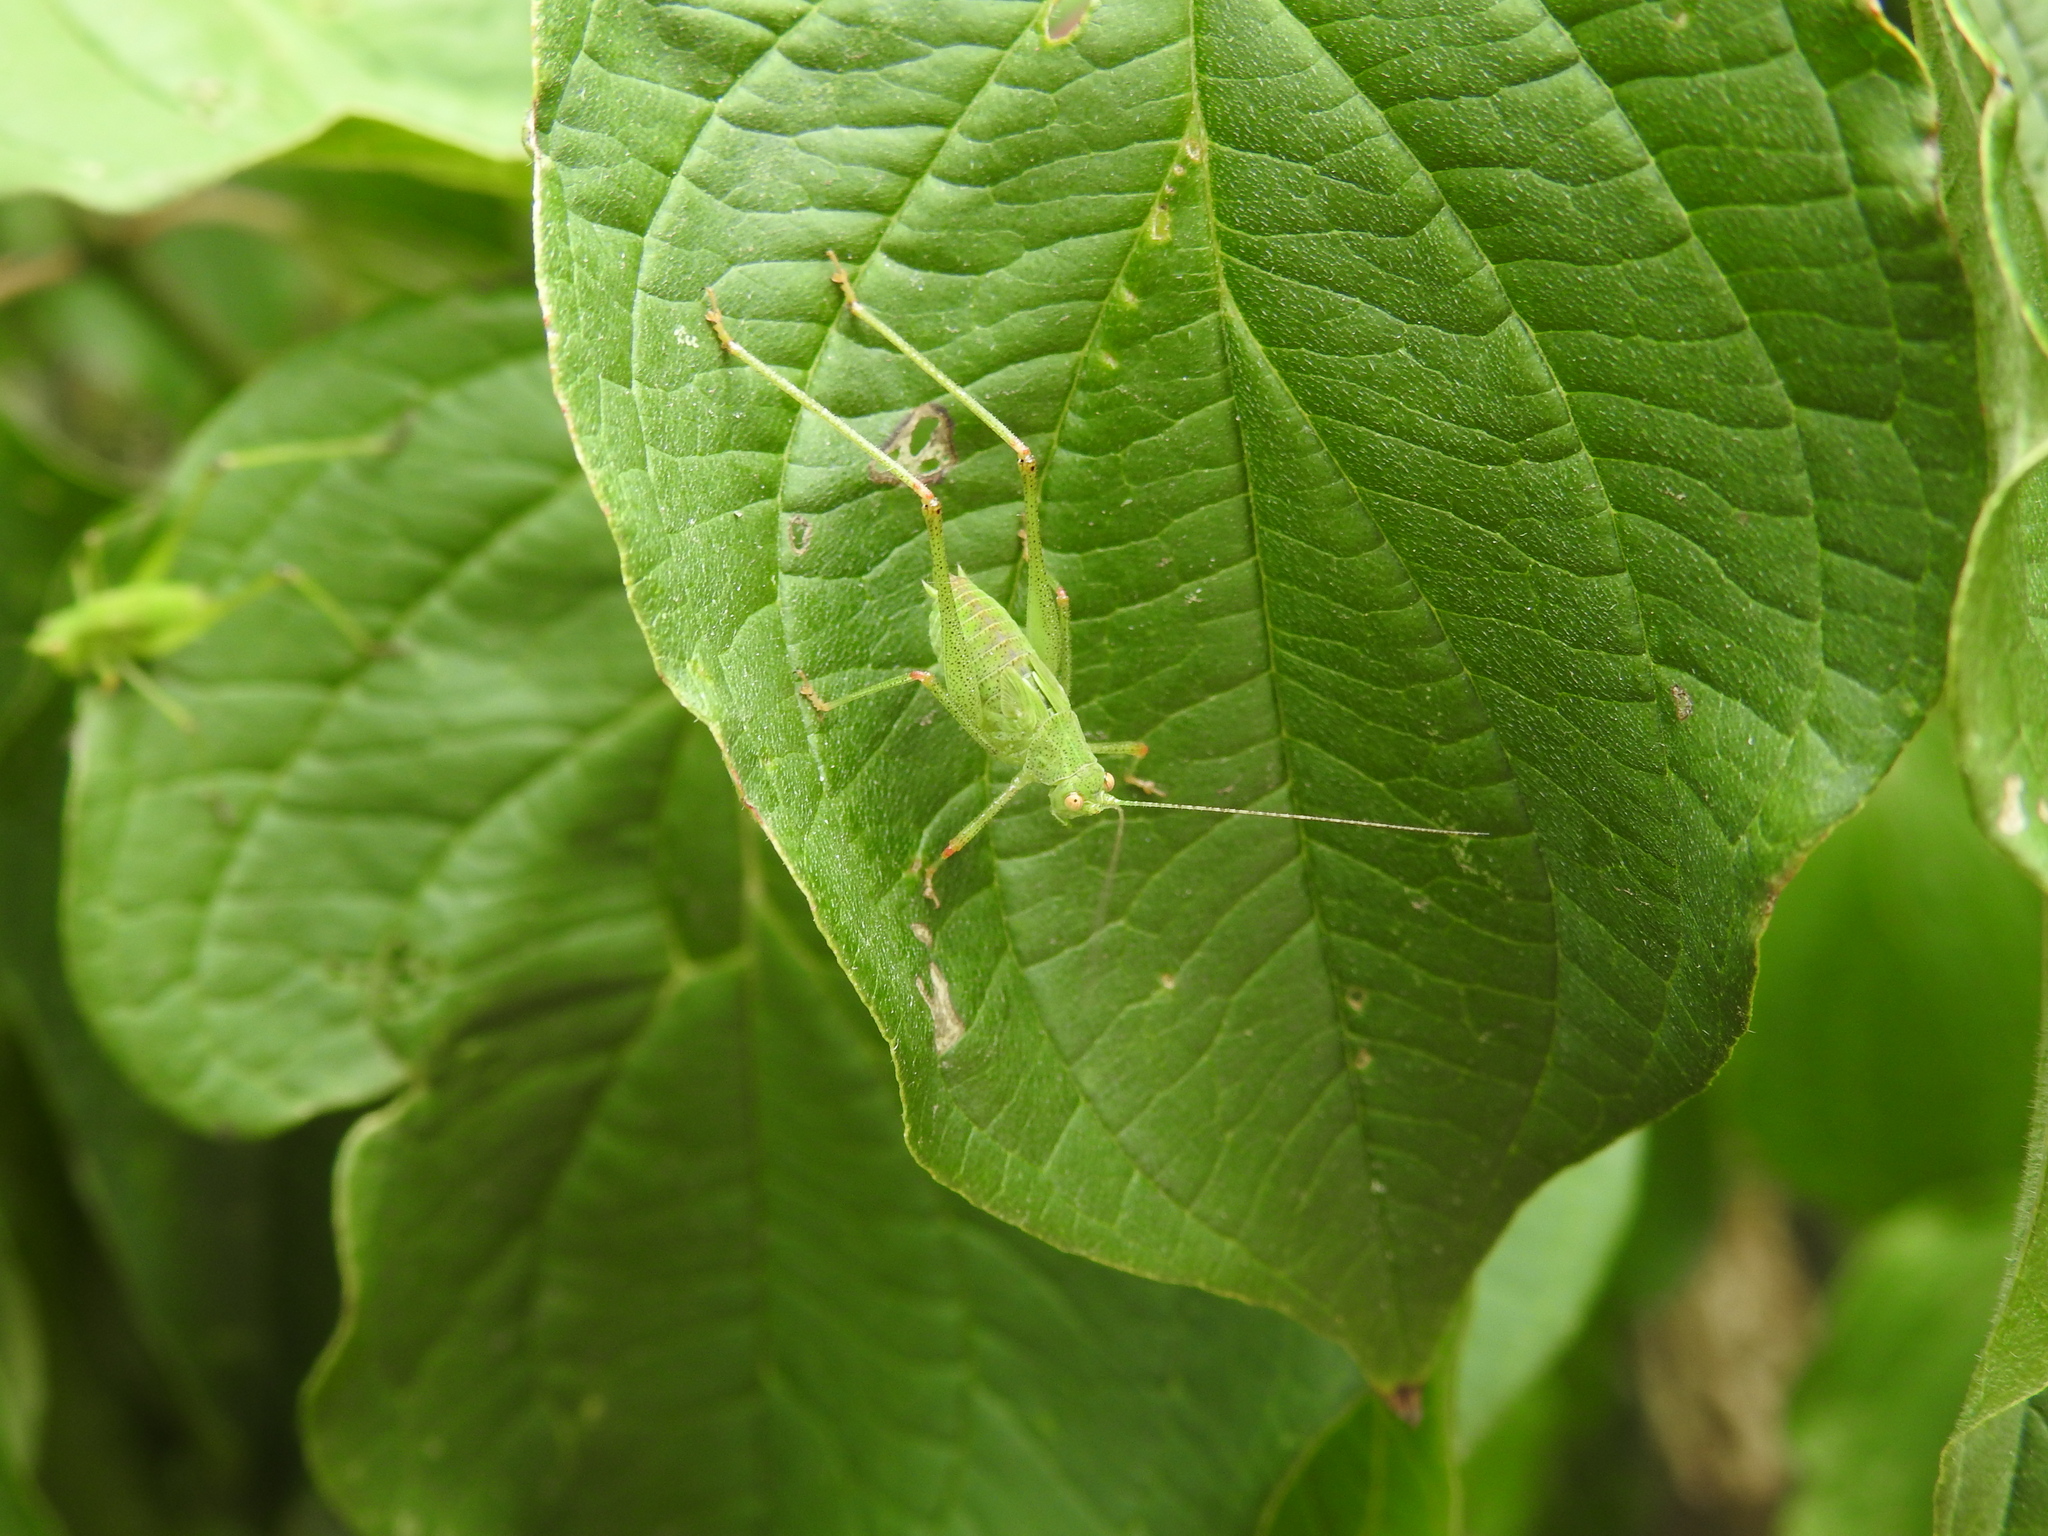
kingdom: Animalia
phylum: Arthropoda
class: Insecta
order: Orthoptera
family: Tettigoniidae
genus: Phaneroptera
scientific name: Phaneroptera nana
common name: Southern sickle bush-cricket
